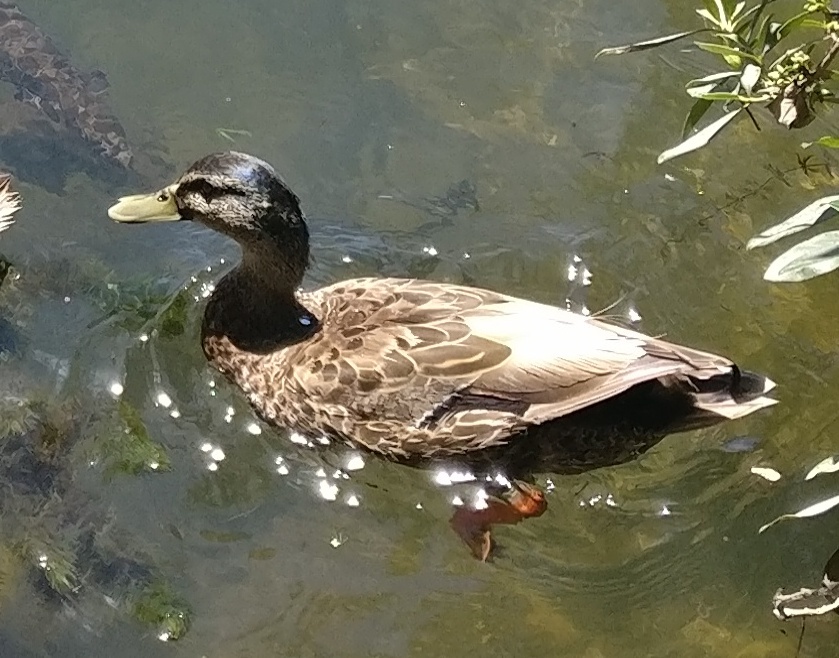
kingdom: Animalia
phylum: Chordata
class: Aves
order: Anseriformes
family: Anatidae
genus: Anas
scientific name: Anas platyrhynchos
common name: Mallard
